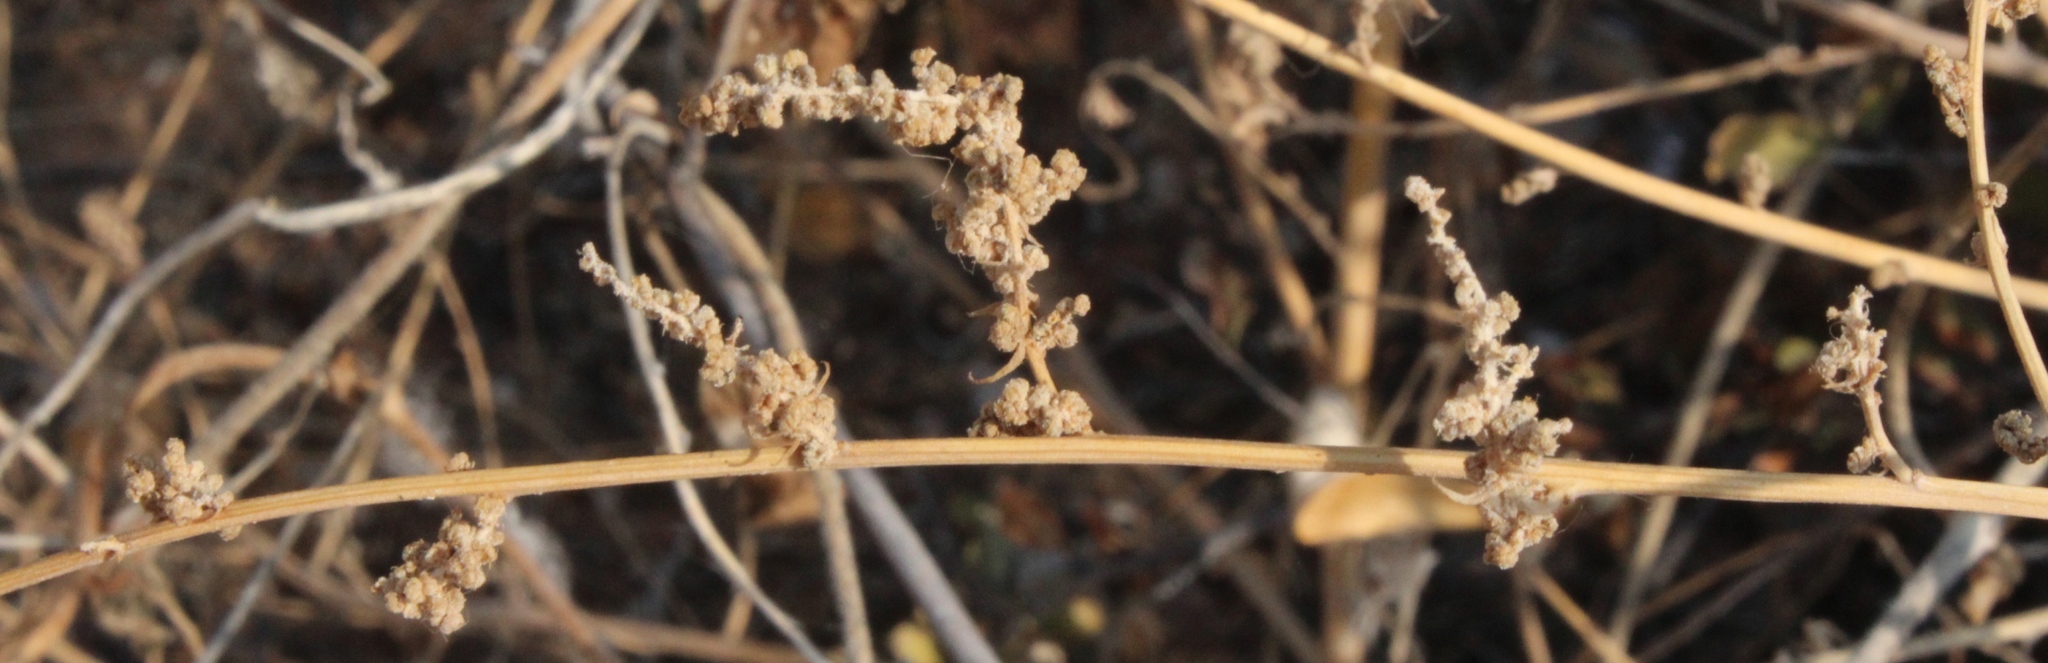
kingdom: Plantae
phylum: Tracheophyta
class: Magnoliopsida
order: Gentianales
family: Apocynaceae
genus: Pergularia
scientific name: Pergularia daemia
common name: Trellis-vine
